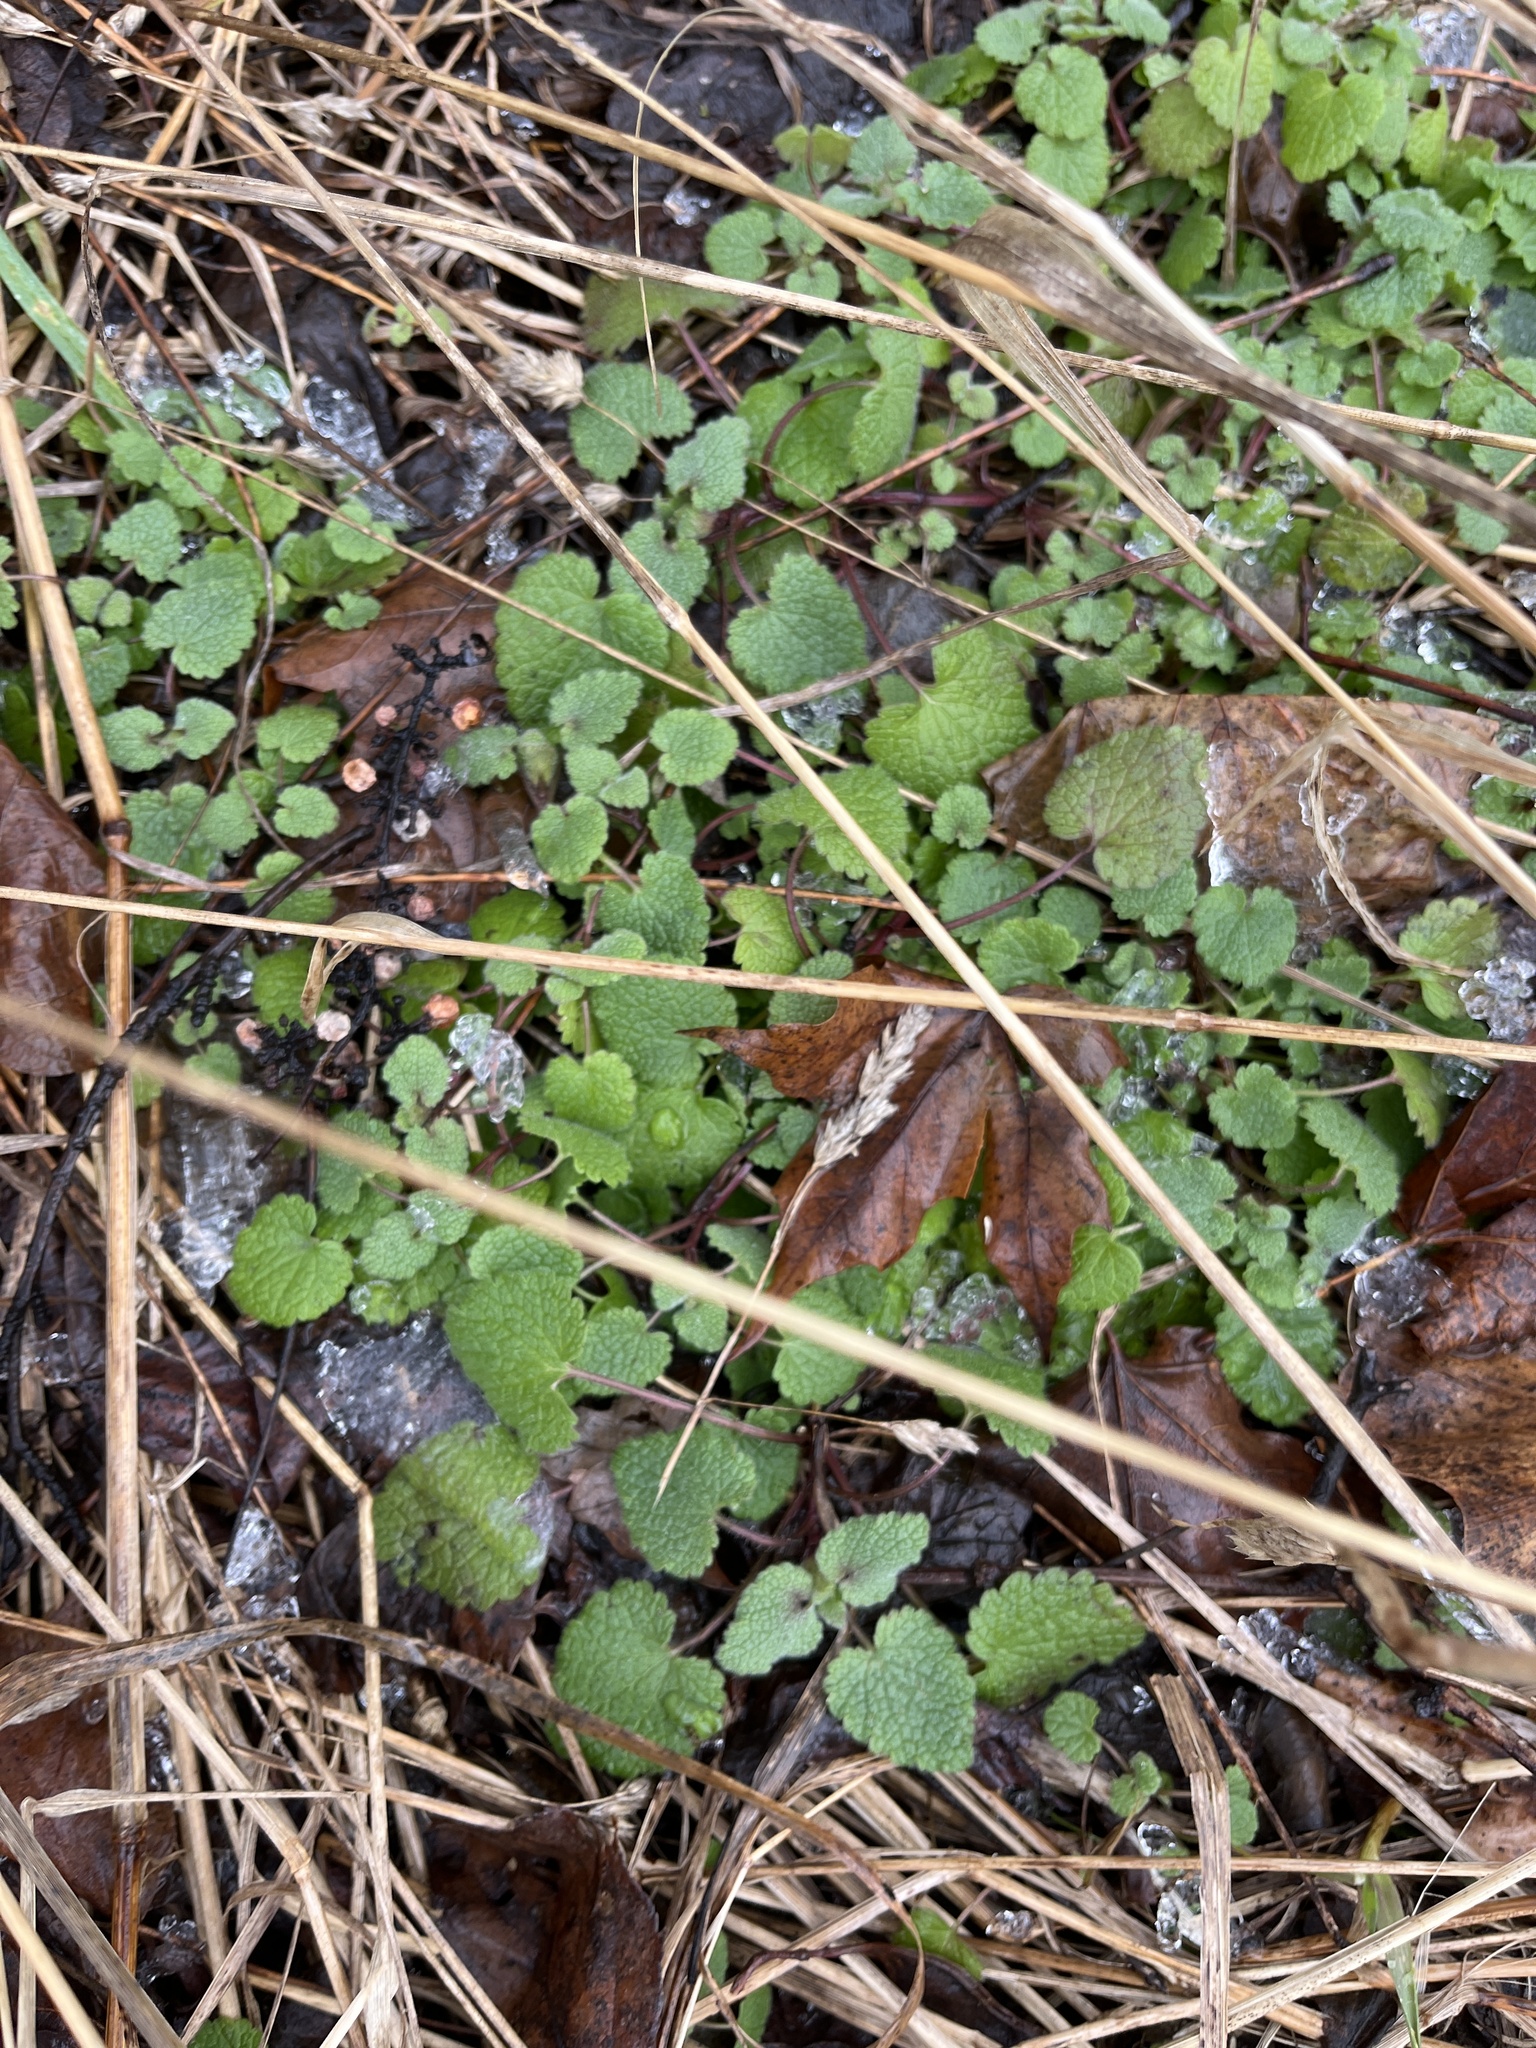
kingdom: Plantae
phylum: Tracheophyta
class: Magnoliopsida
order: Lamiales
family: Lamiaceae
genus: Glechoma
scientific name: Glechoma hederacea
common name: Ground ivy
